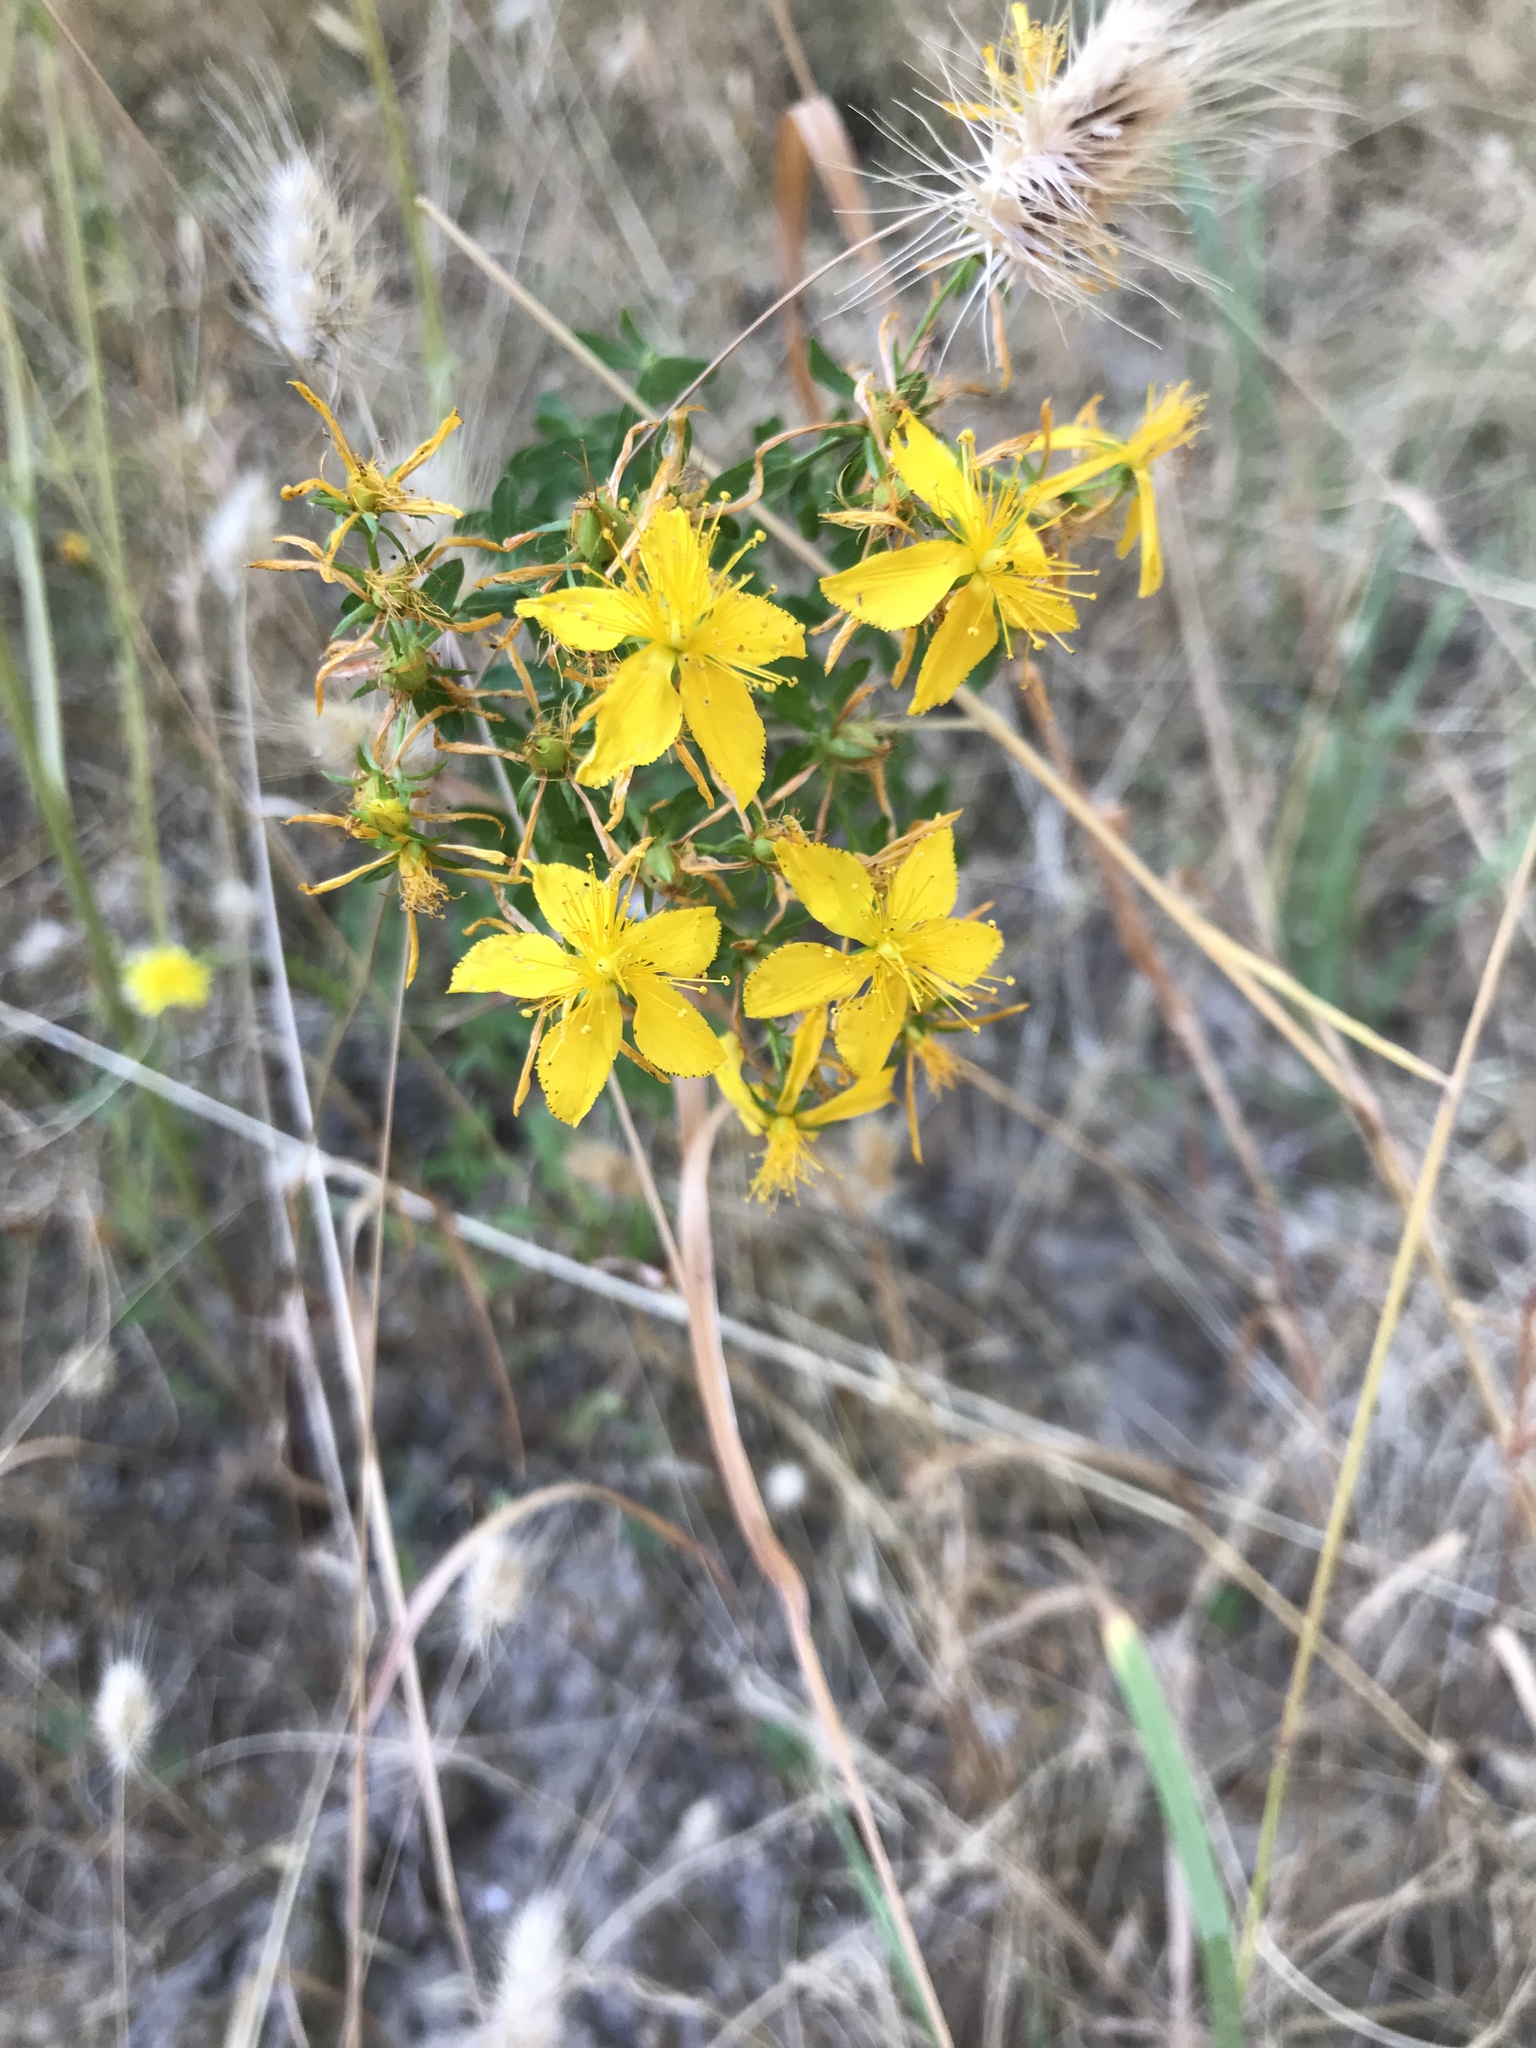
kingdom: Plantae
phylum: Tracheophyta
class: Magnoliopsida
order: Malpighiales
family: Hypericaceae
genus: Hypericum
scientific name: Hypericum perforatum
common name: Common st. johnswort
